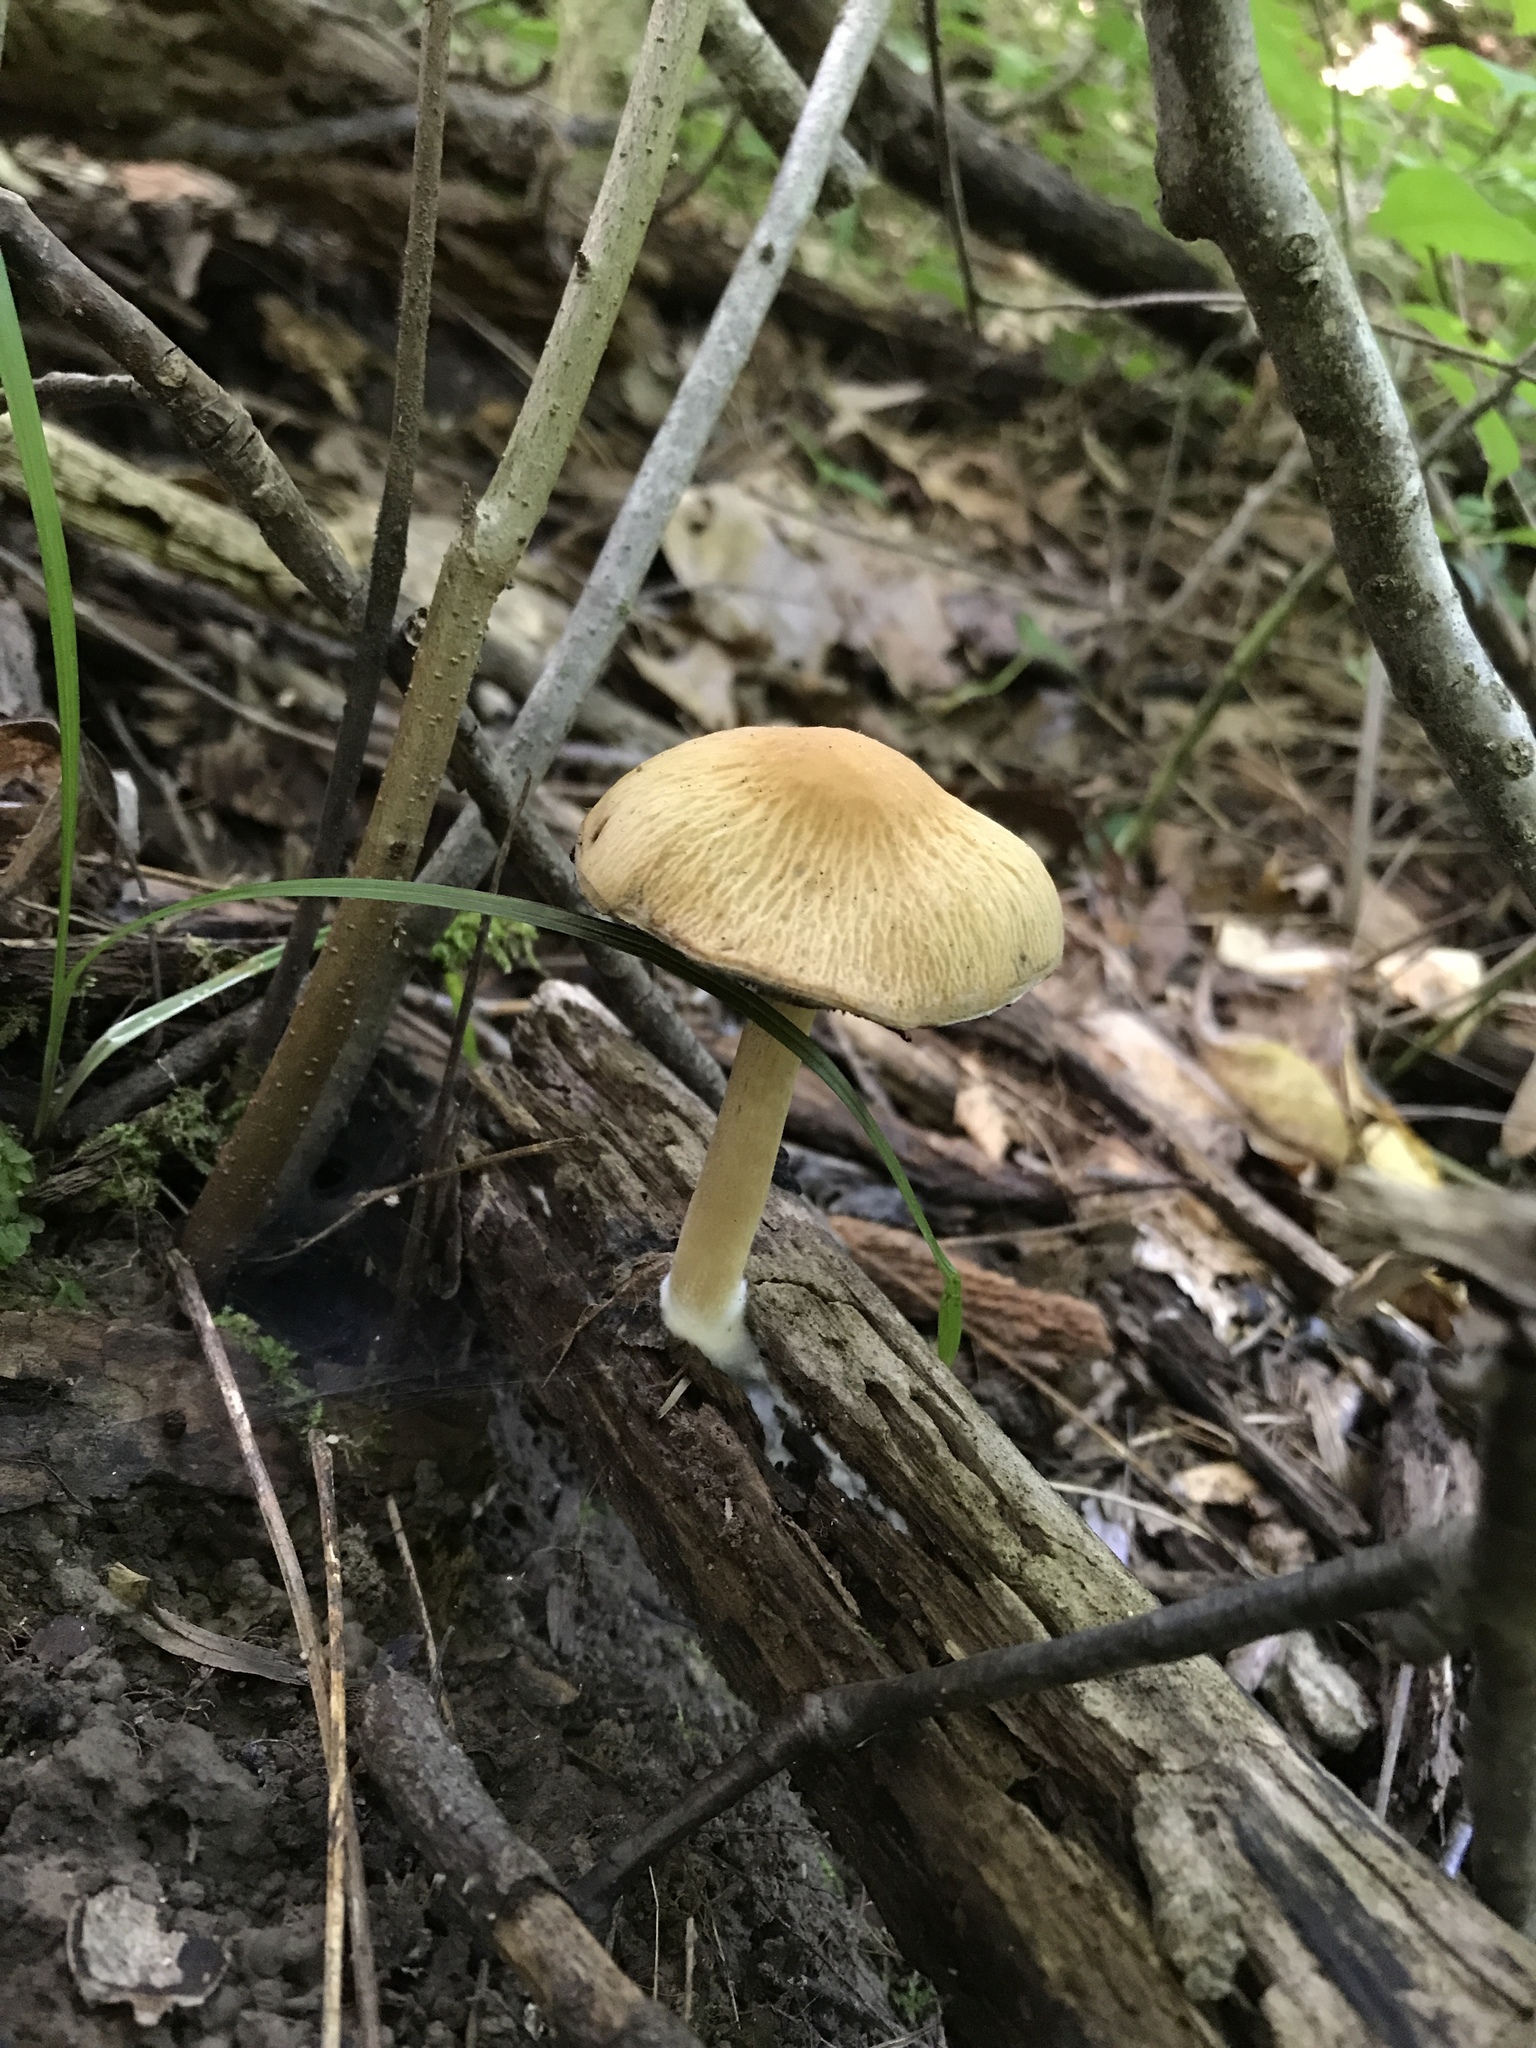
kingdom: Fungi
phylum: Basidiomycota
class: Agaricomycetes
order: Agaricales
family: Psathyrellaceae
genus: Typhrasa
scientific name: Typhrasa gossypina
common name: Wrinkled psathyrella
